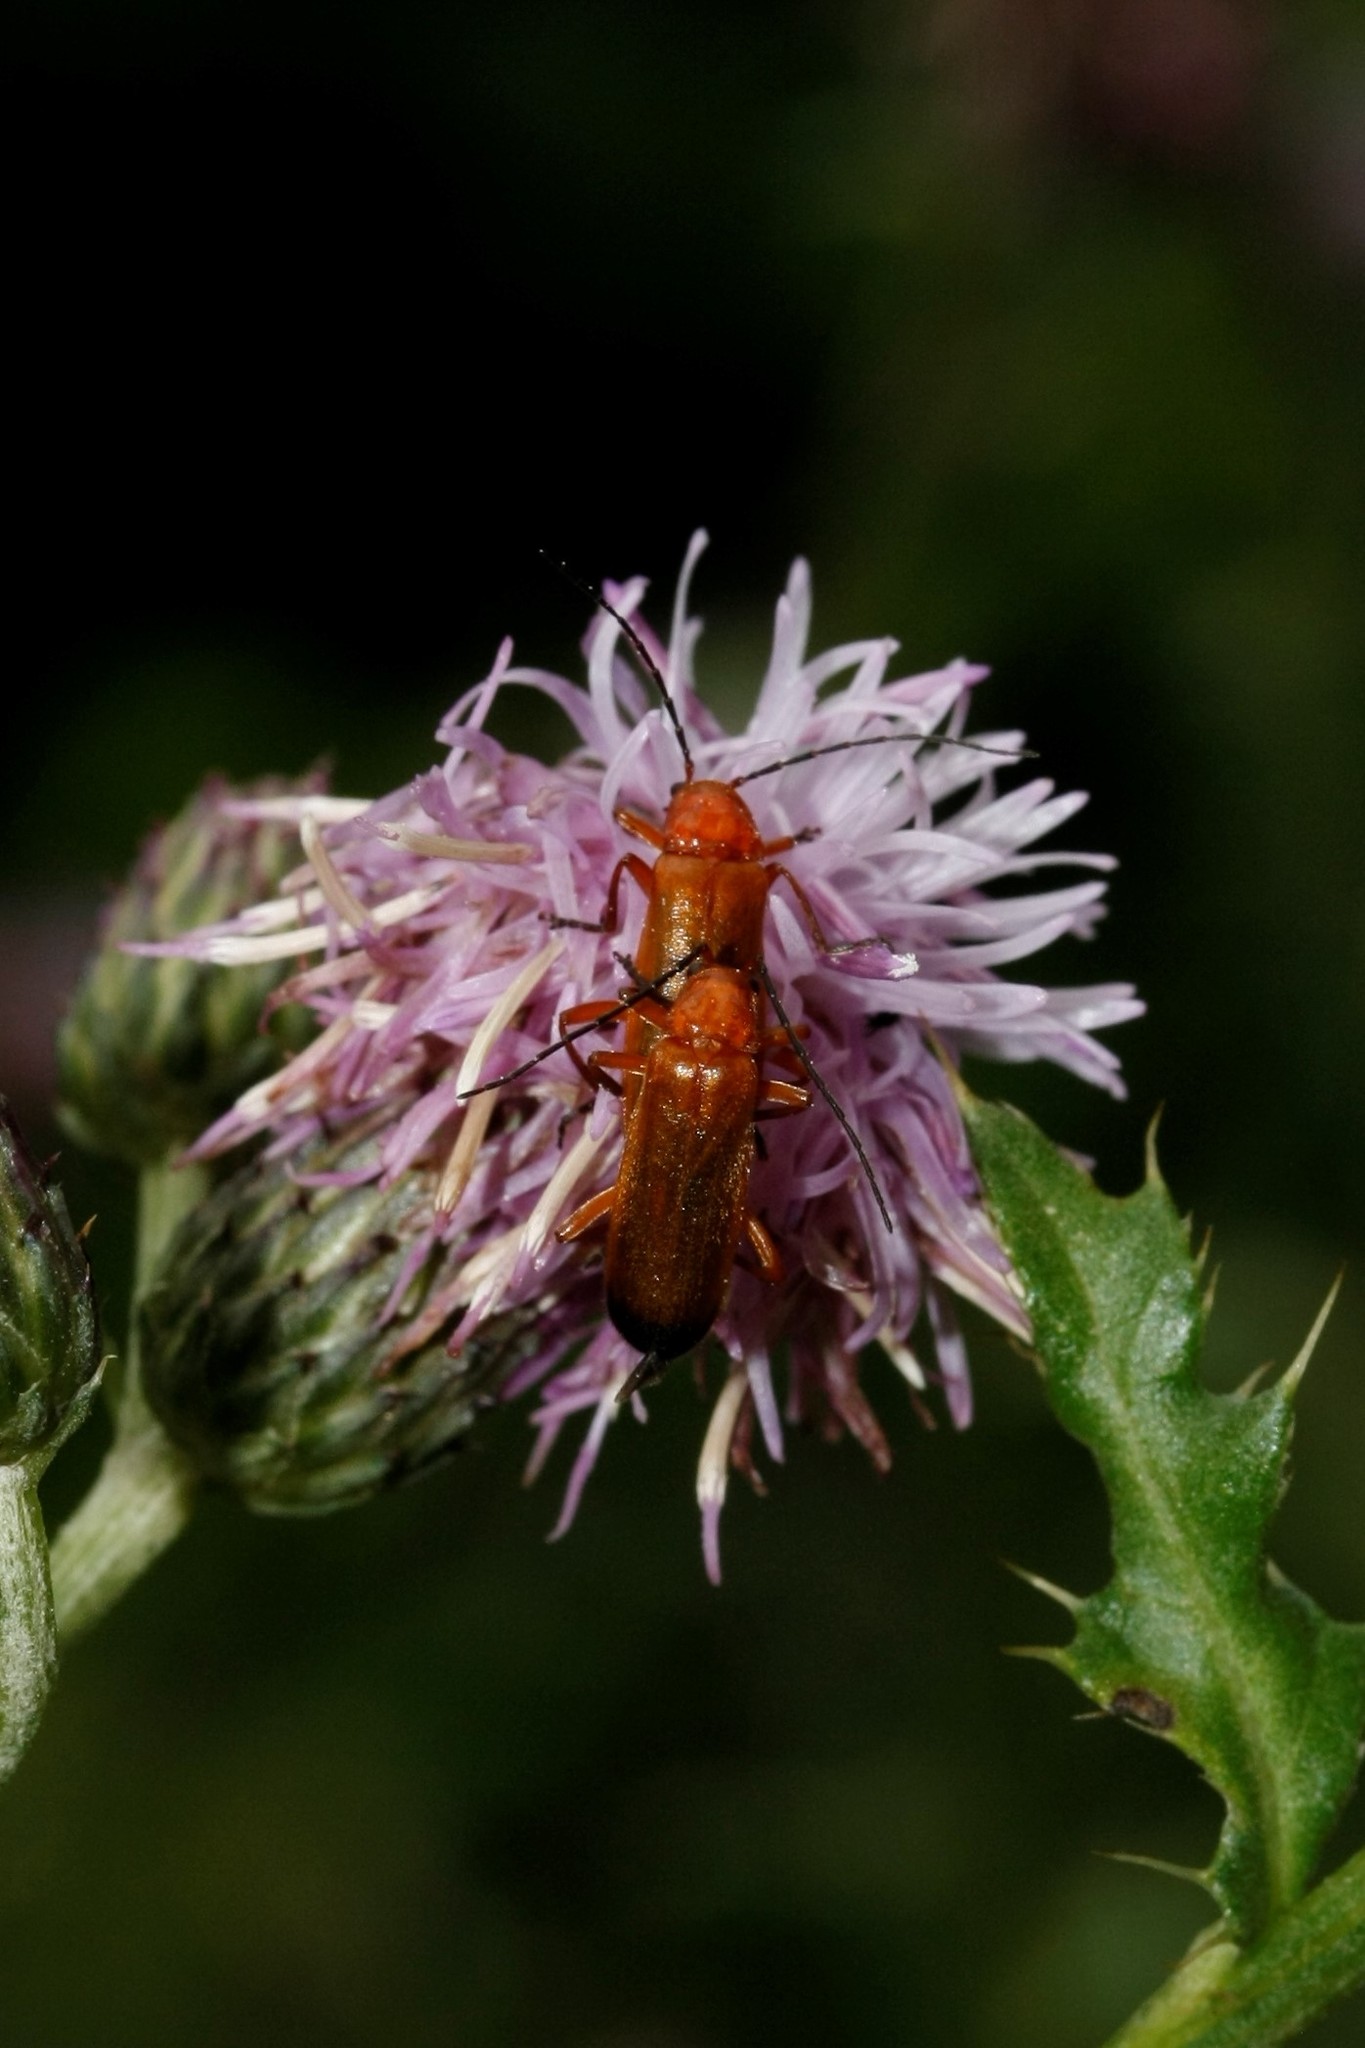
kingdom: Animalia
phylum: Arthropoda
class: Insecta
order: Coleoptera
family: Cantharidae
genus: Rhagonycha
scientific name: Rhagonycha fulva
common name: Common red soldier beetle
